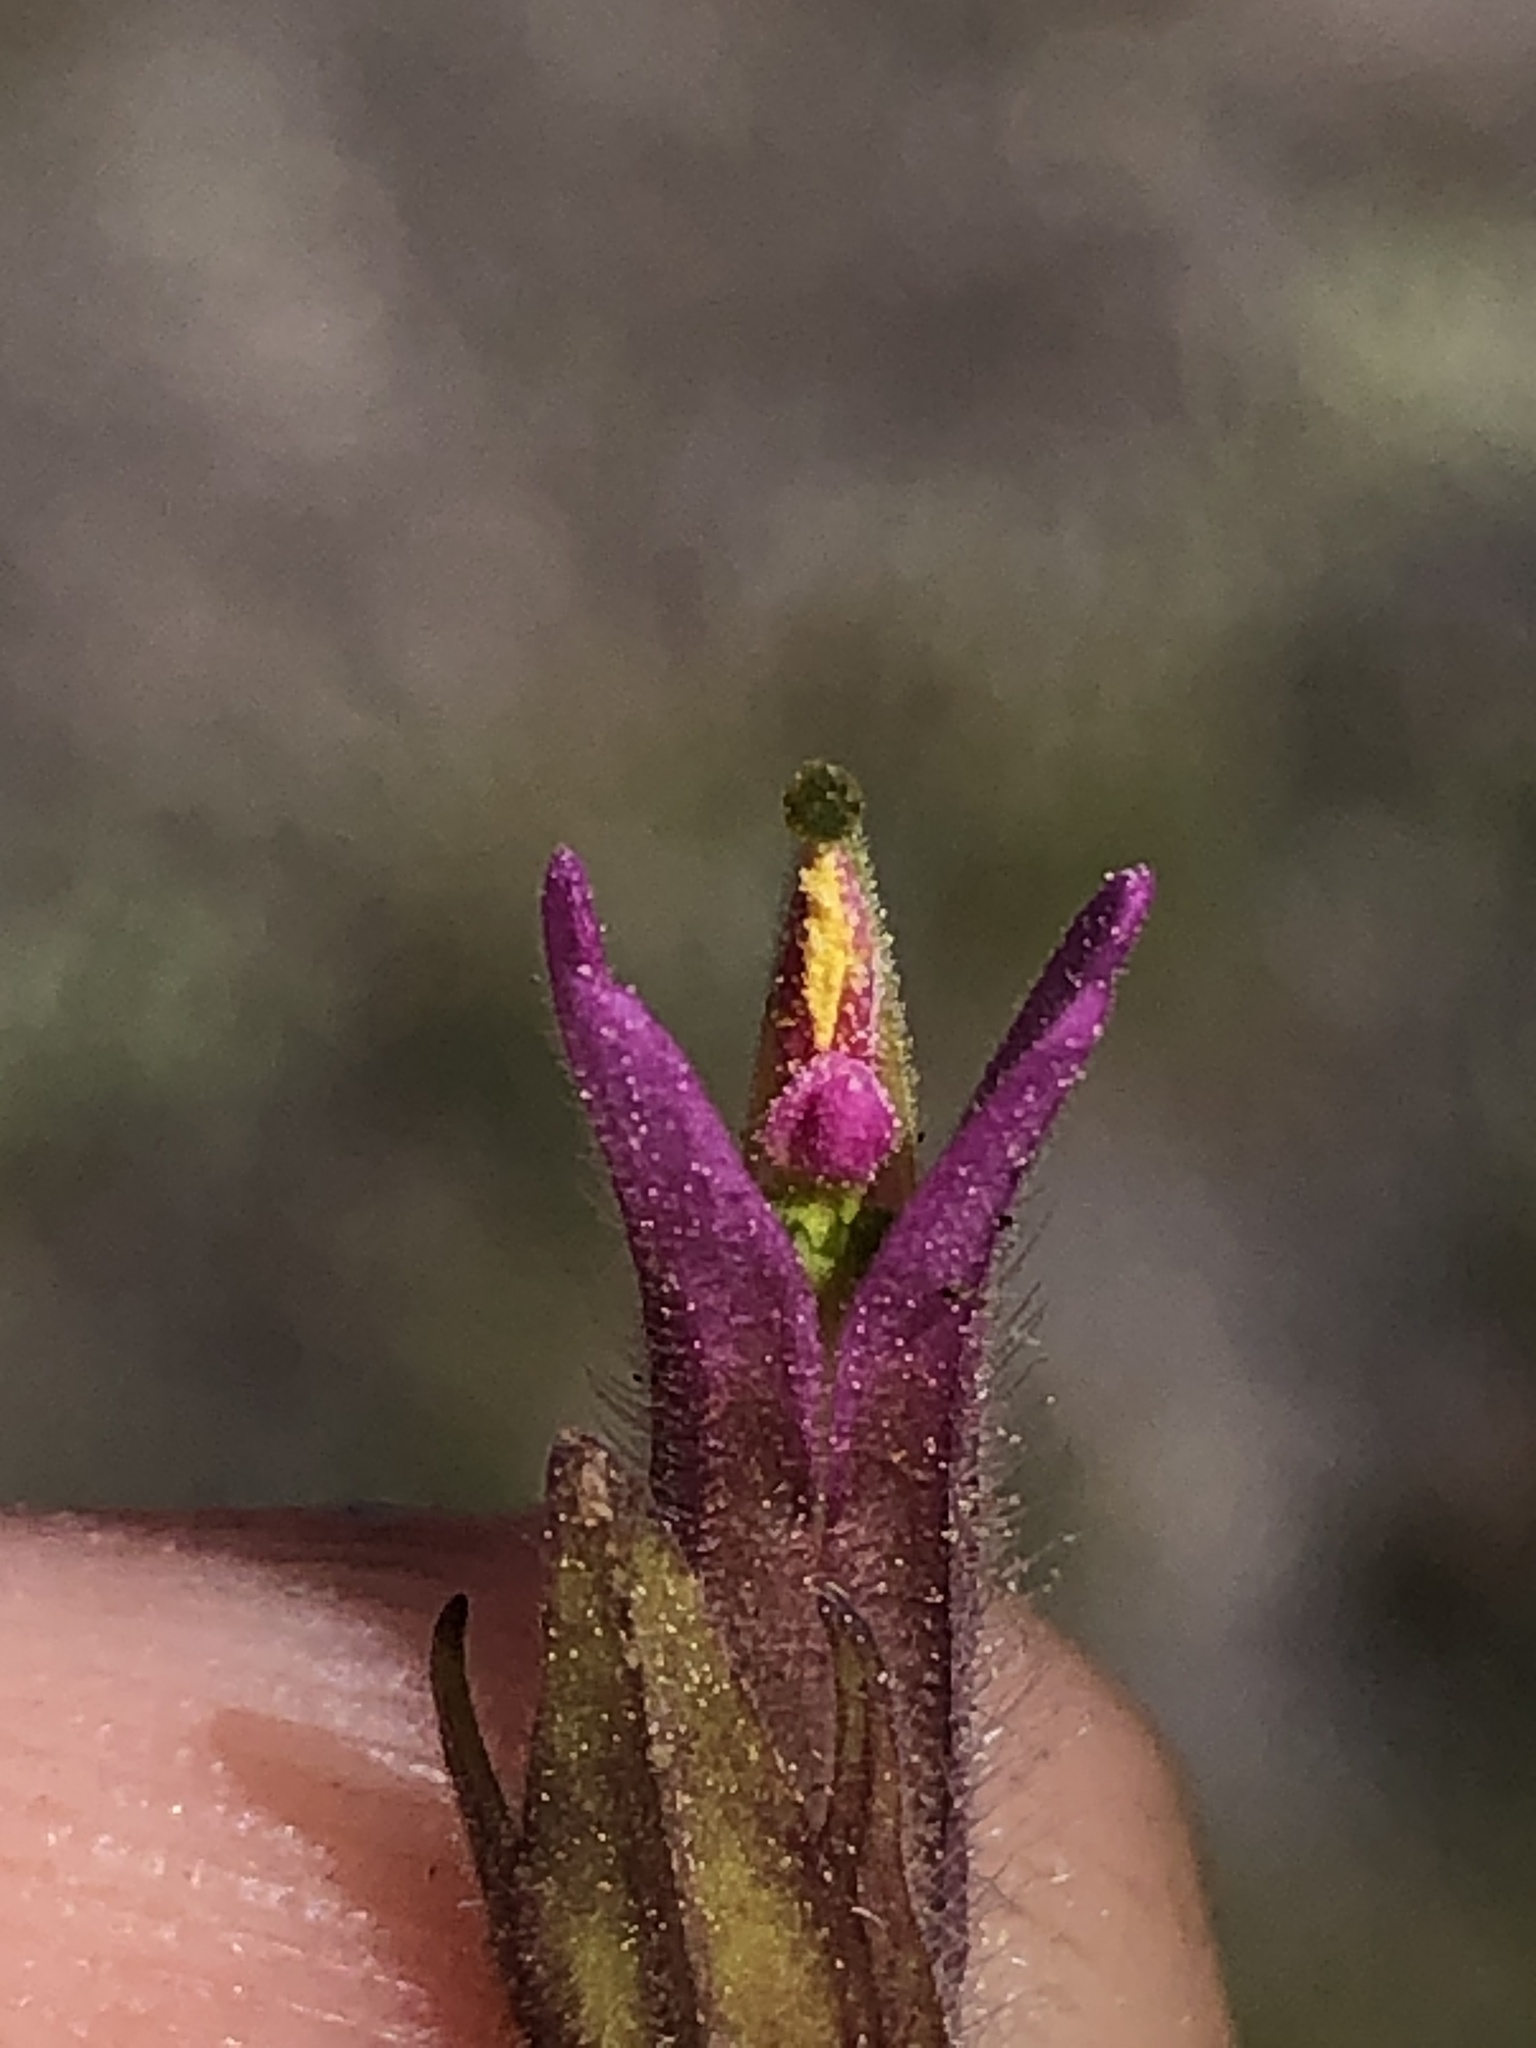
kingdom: Plantae
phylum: Tracheophyta
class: Magnoliopsida
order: Lamiales
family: Orobanchaceae
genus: Castilleja
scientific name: Castilleja lemmonii
